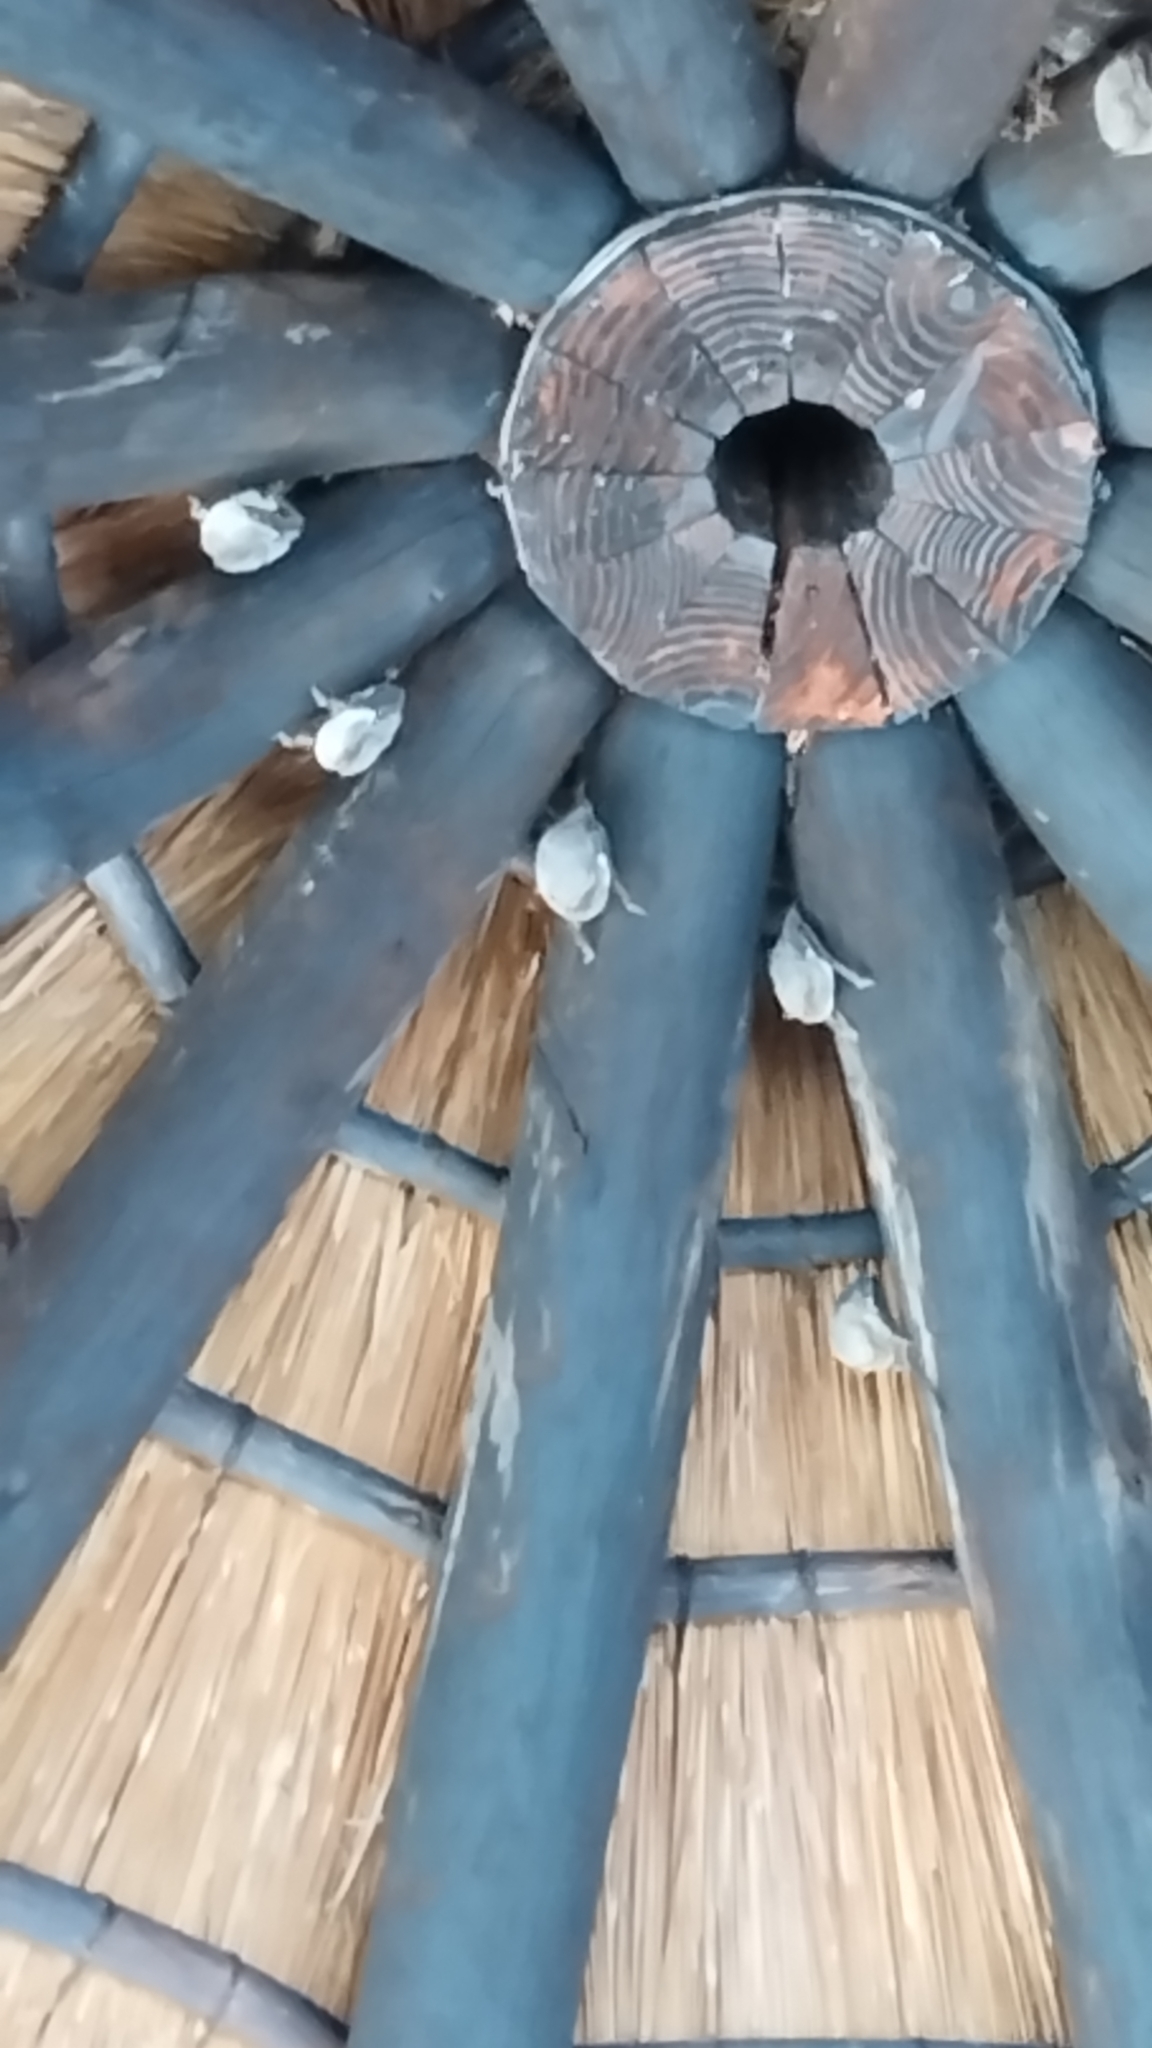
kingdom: Animalia
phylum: Chordata
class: Mammalia
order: Chiroptera
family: Emballonuridae
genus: Taphozous
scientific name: Taphozous mauritianus
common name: Mauritian tomb bat
